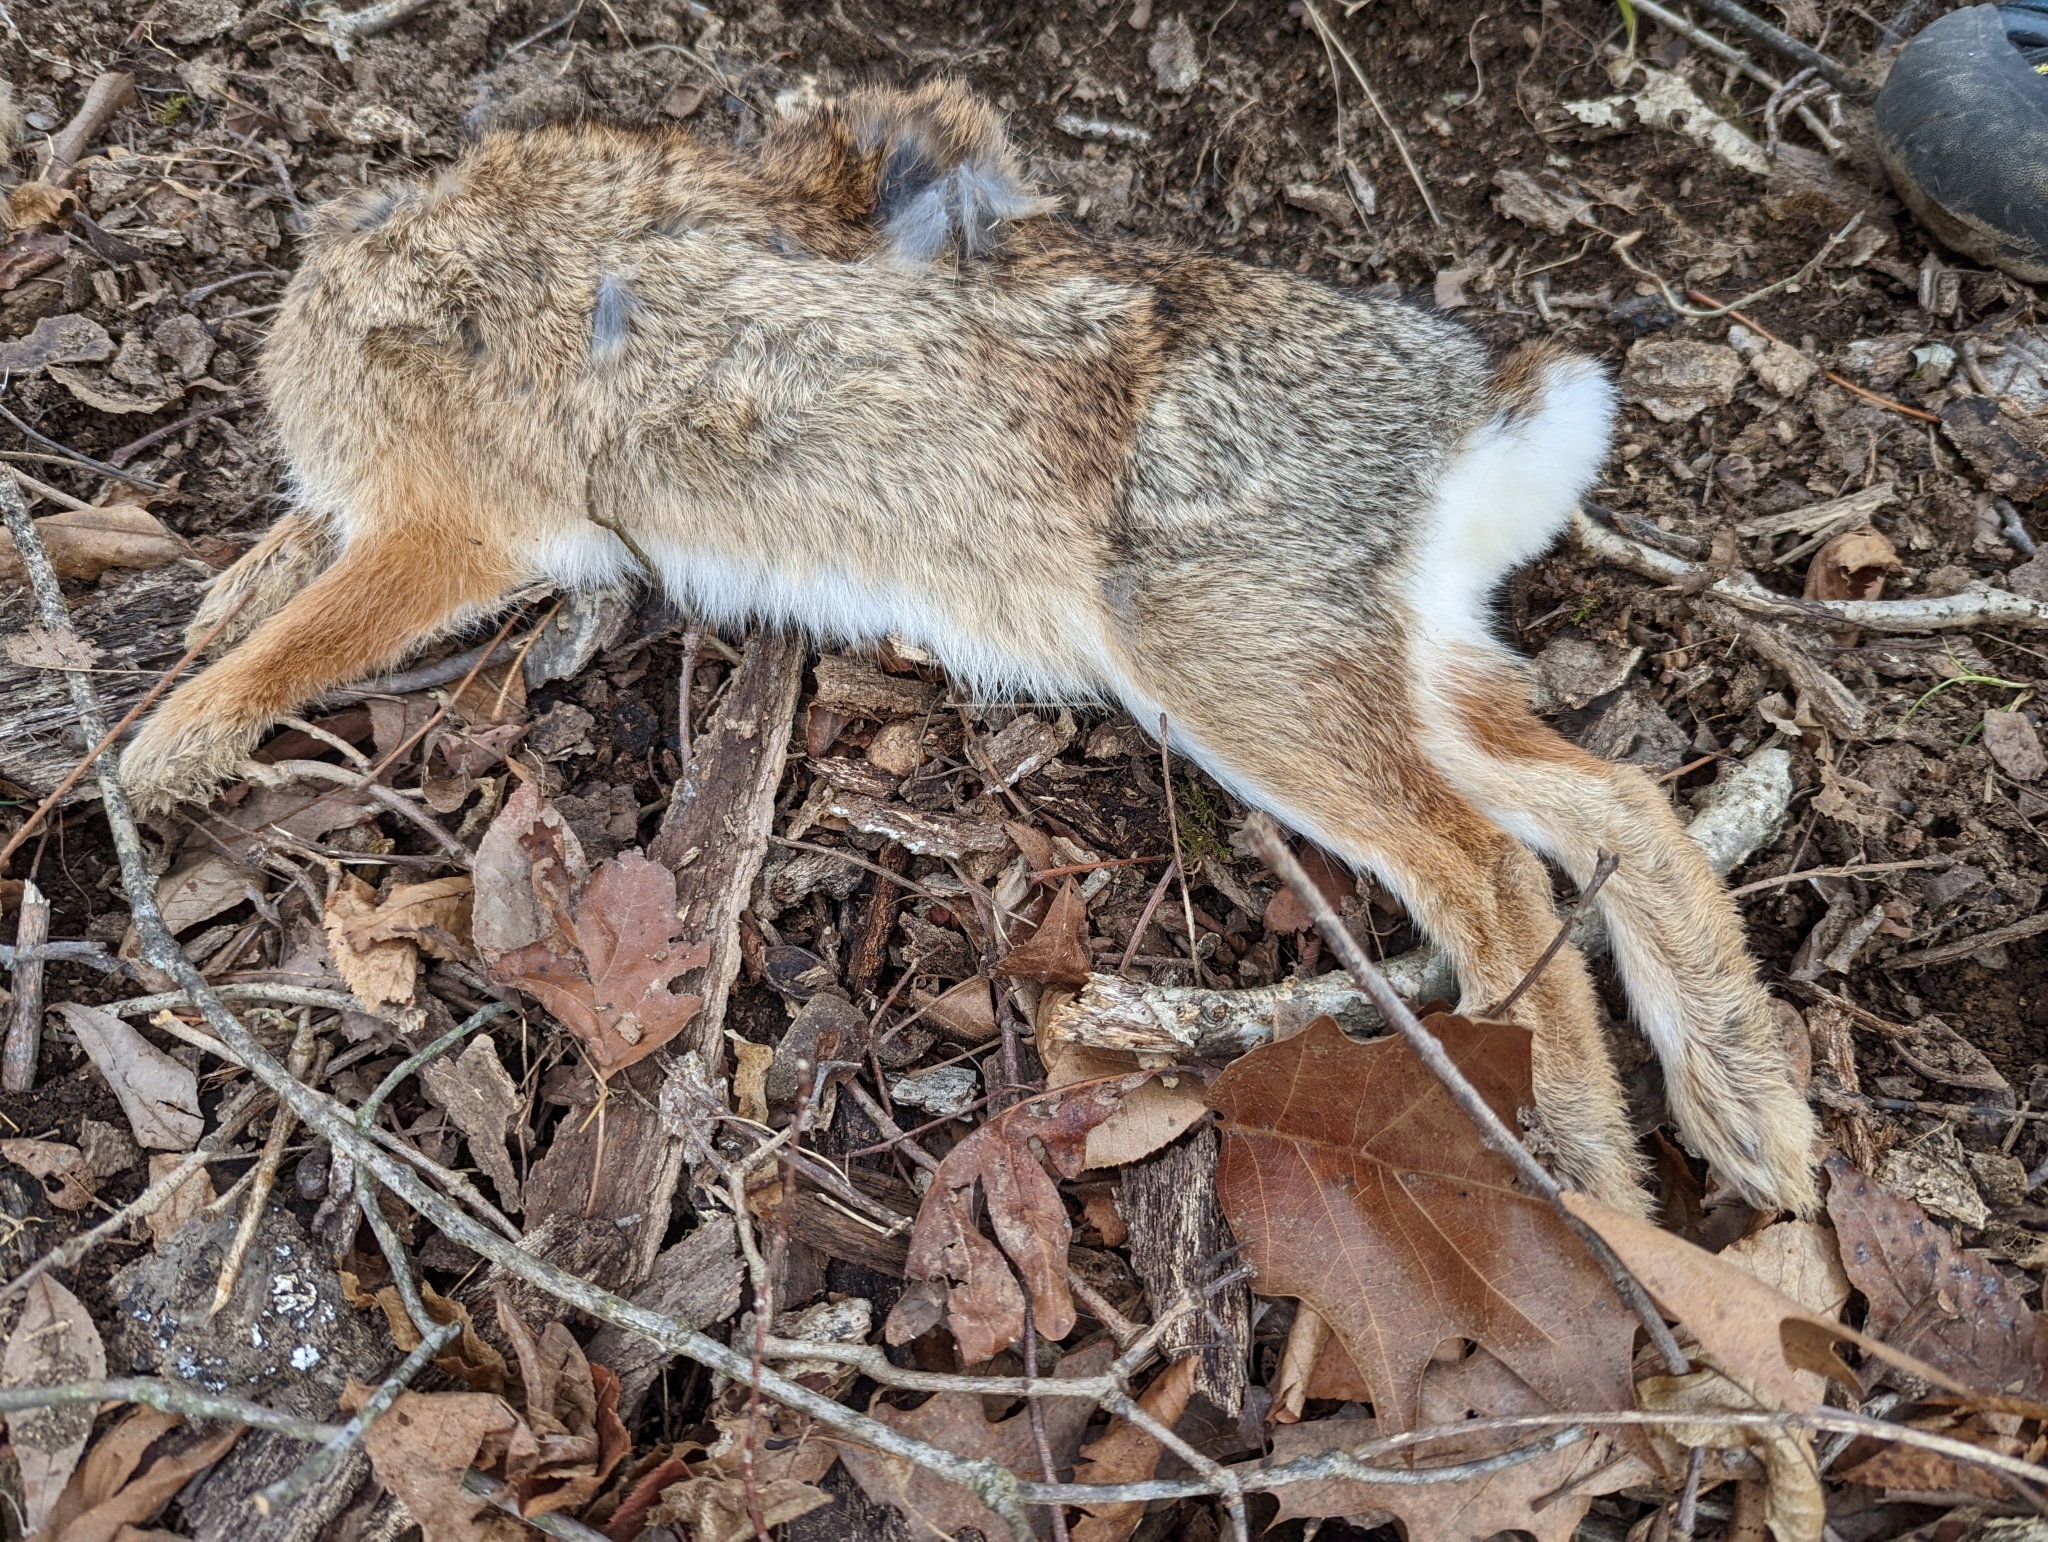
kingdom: Animalia
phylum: Chordata
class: Mammalia
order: Lagomorpha
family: Leporidae
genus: Sylvilagus
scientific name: Sylvilagus floridanus
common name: Eastern cottontail
